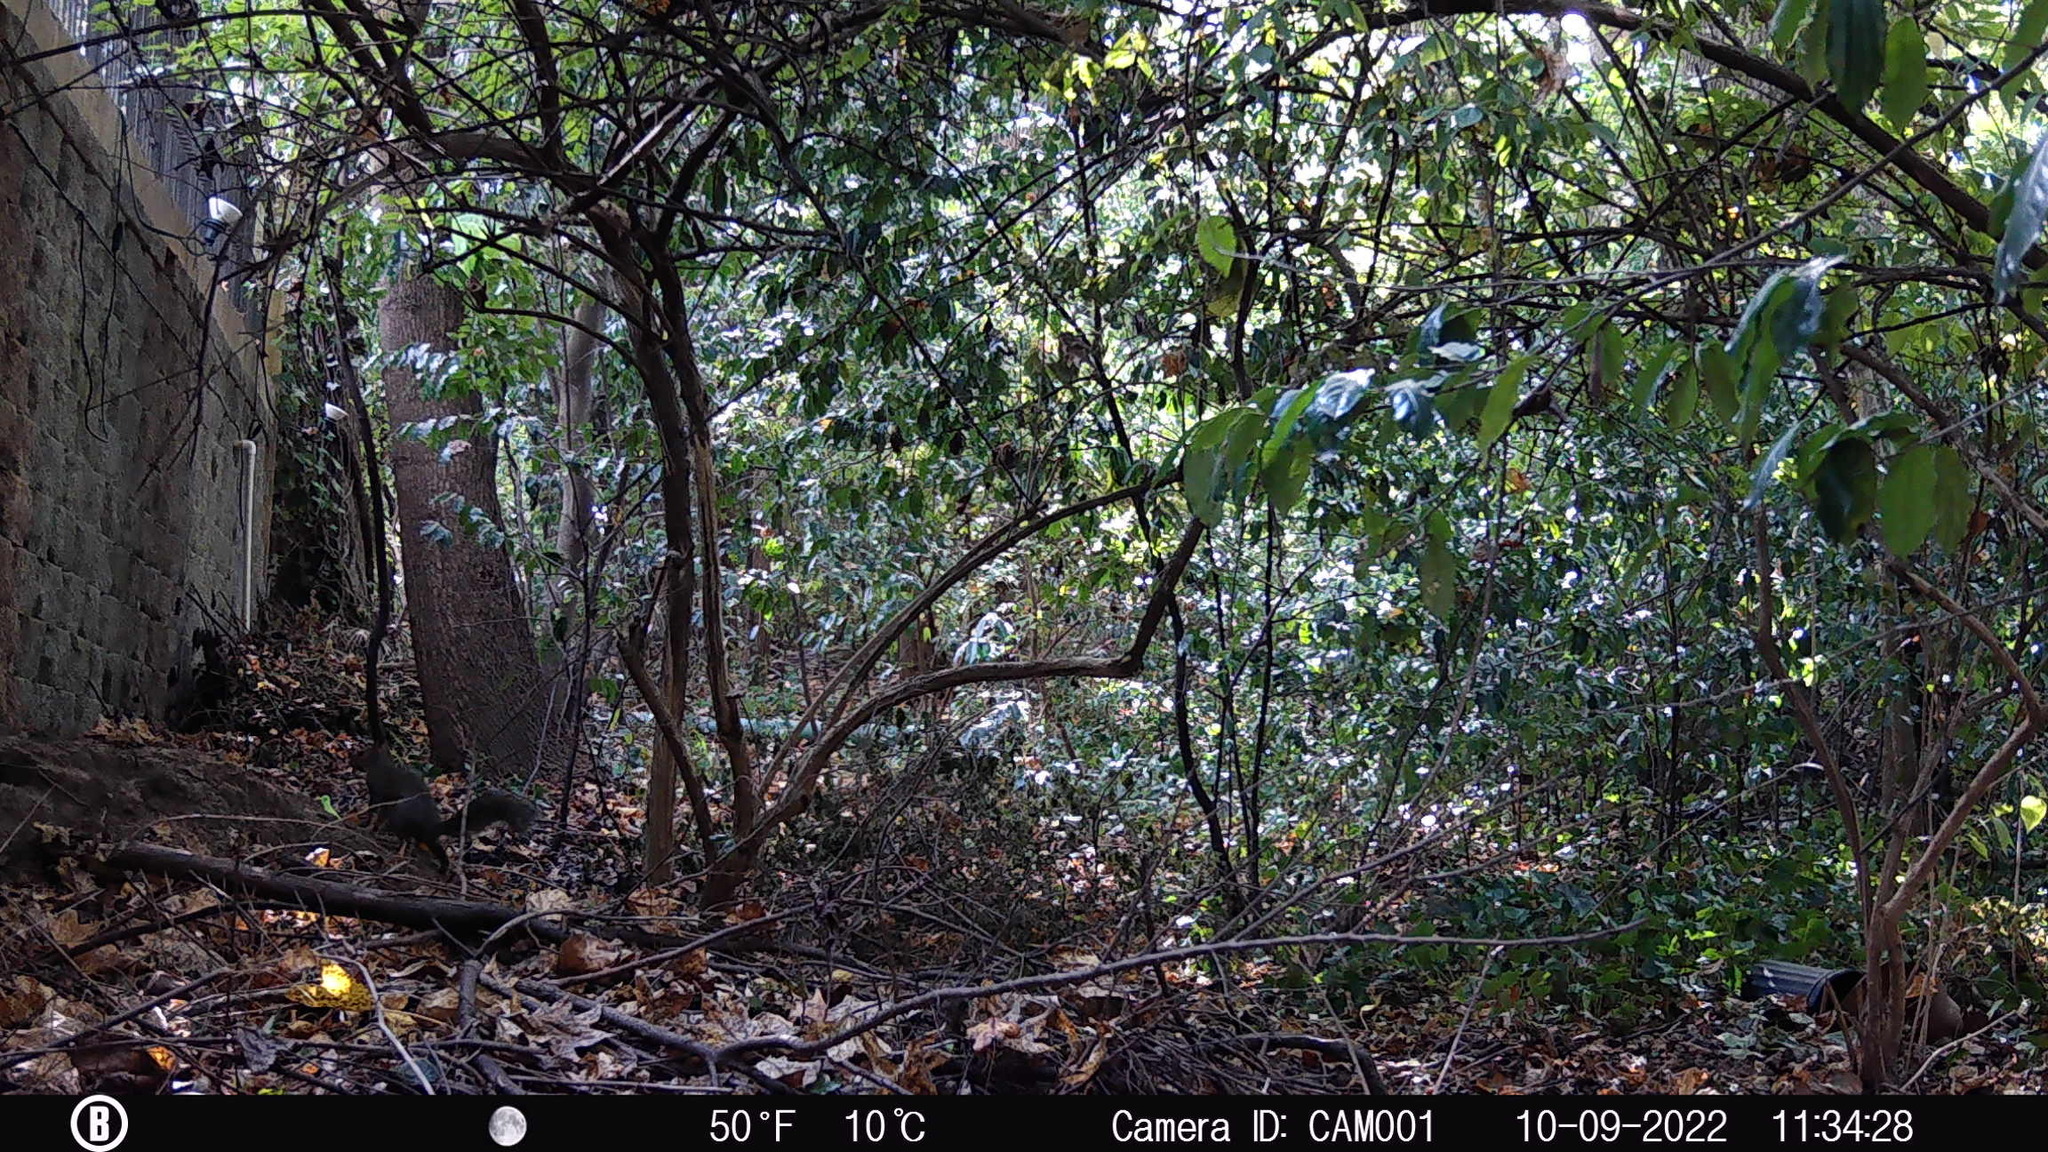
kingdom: Animalia
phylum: Chordata
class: Mammalia
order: Rodentia
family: Sciuridae
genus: Sciurus
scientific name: Sciurus carolinensis
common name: Eastern gray squirrel
